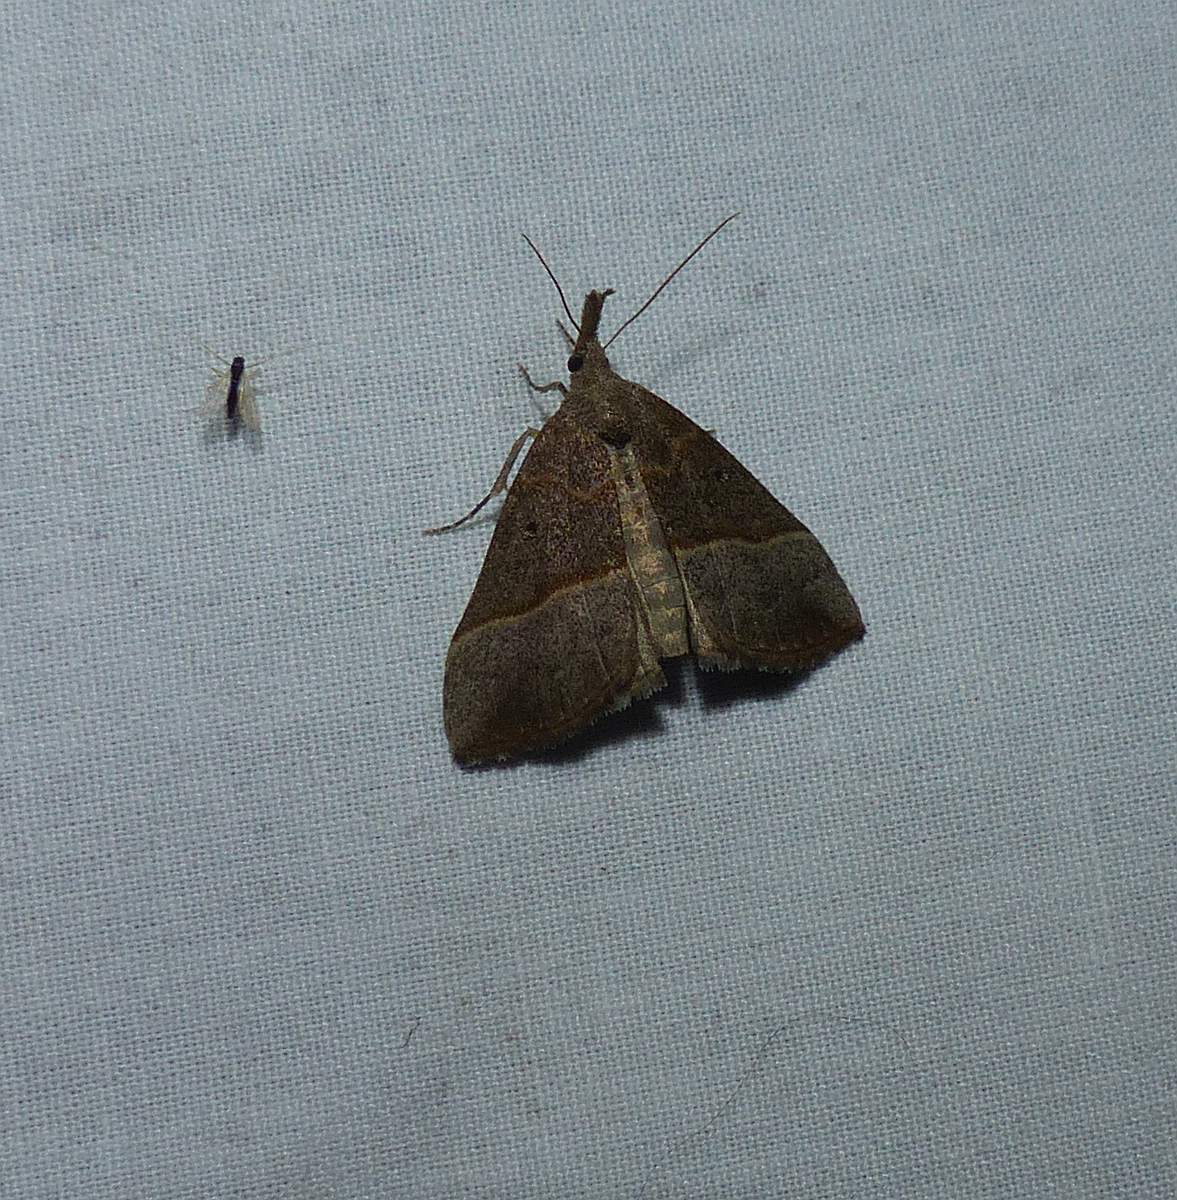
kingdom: Animalia
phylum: Arthropoda
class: Insecta
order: Lepidoptera
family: Erebidae
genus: Hypena
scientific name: Hypena eductalis
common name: Red-footed snout
